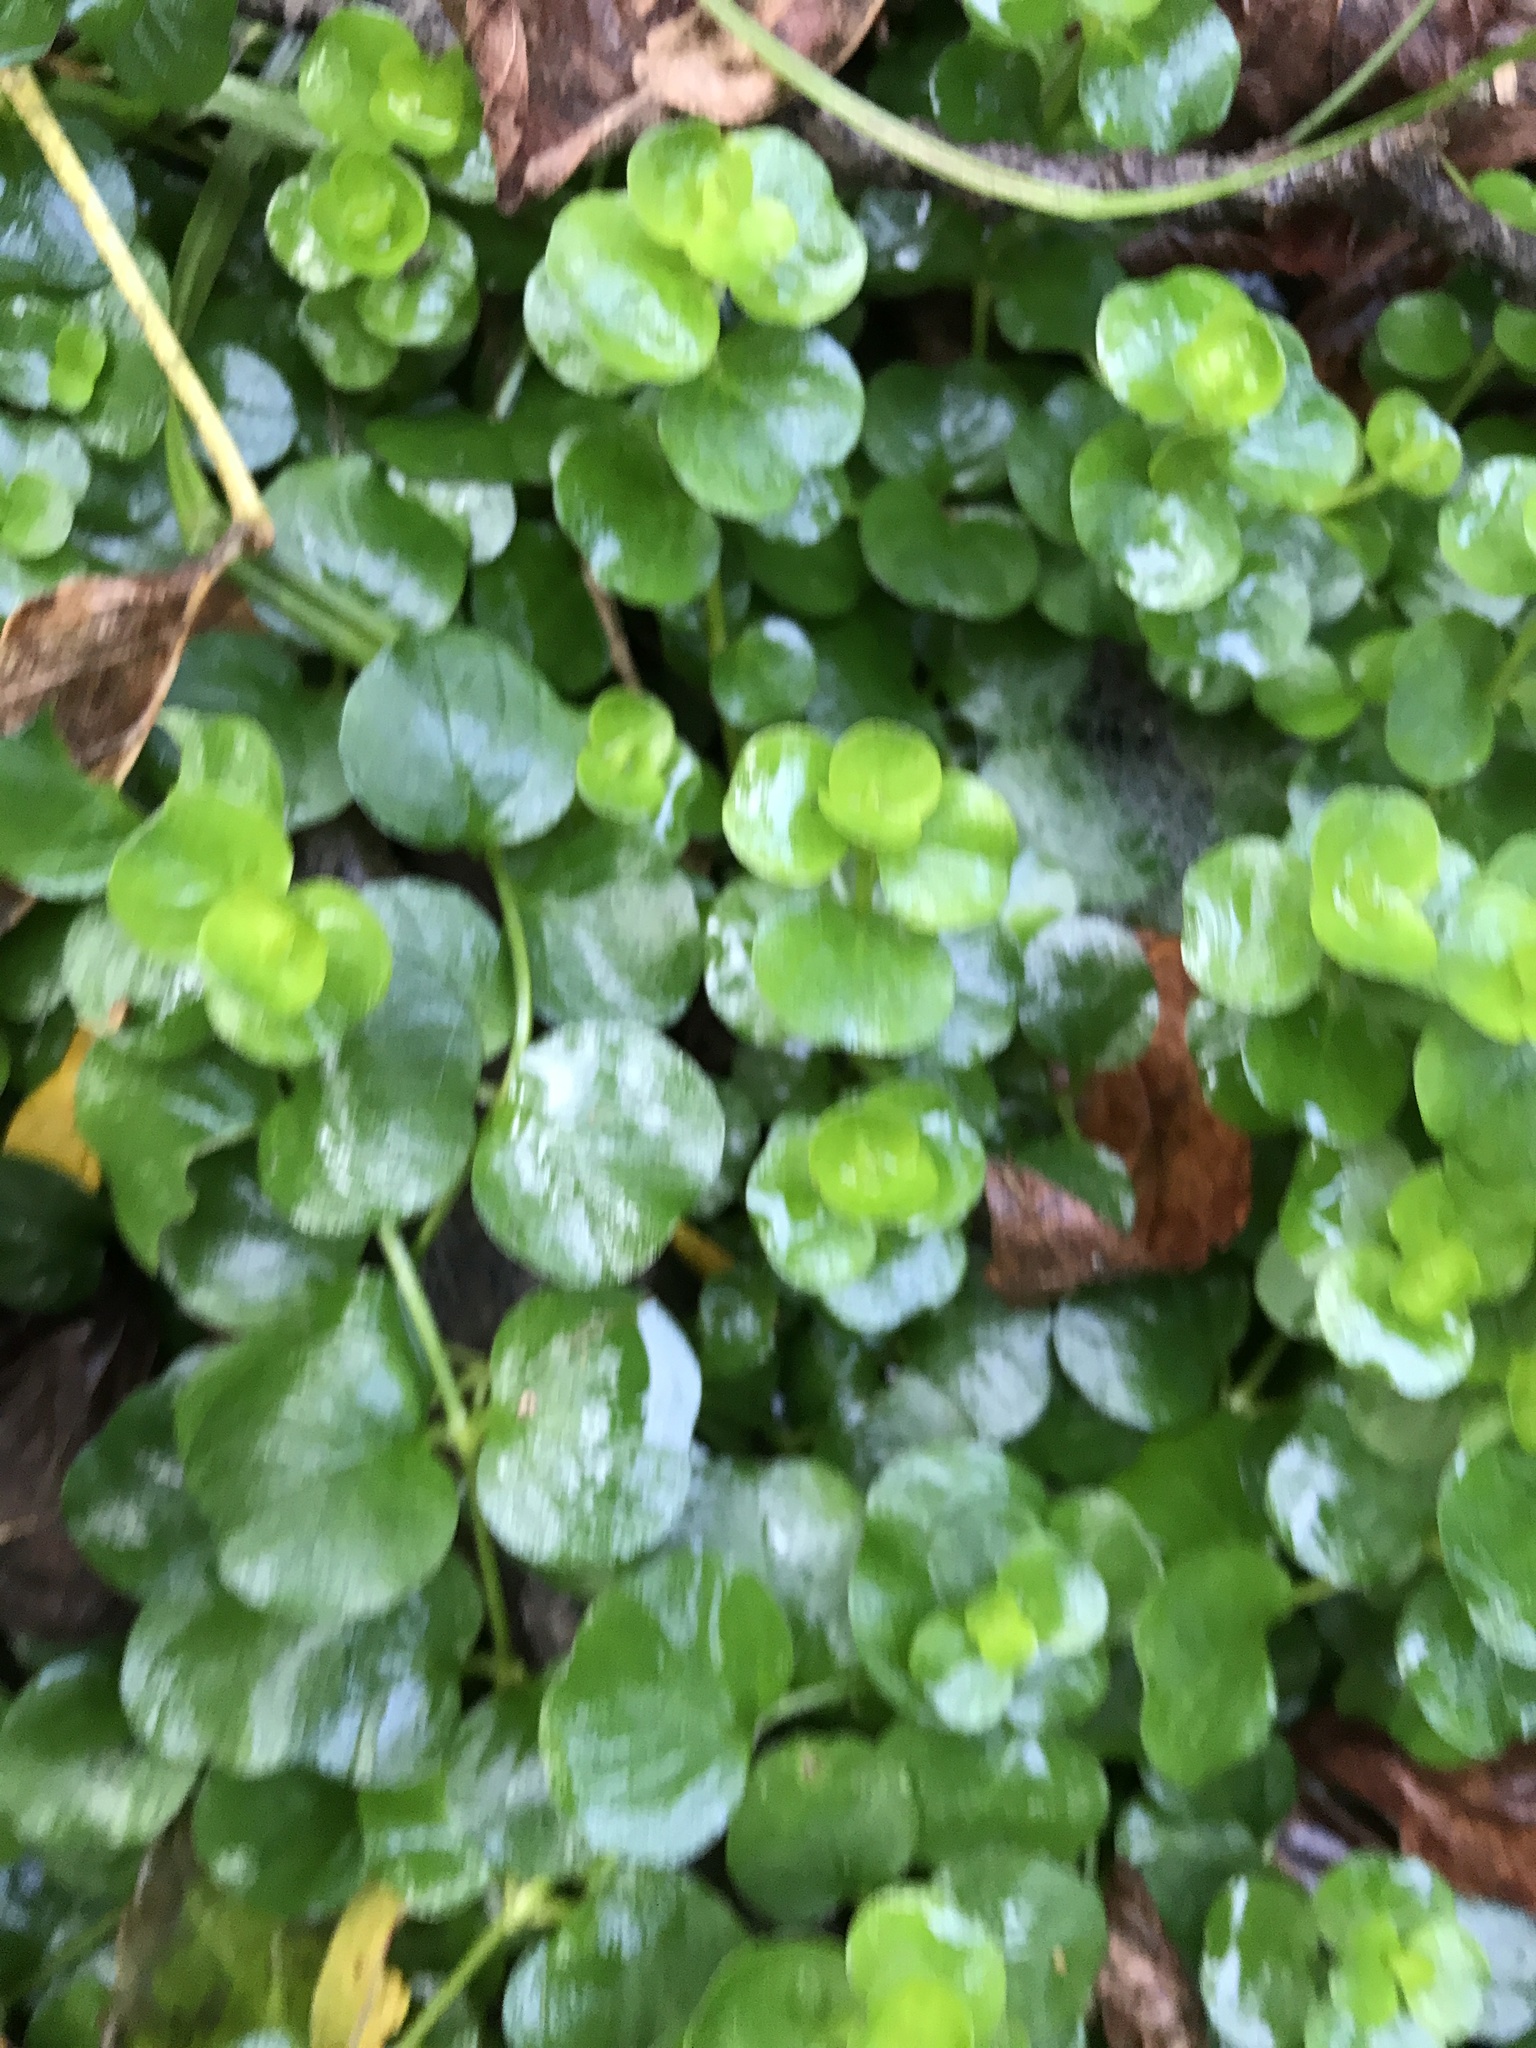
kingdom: Plantae
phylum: Tracheophyta
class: Magnoliopsida
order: Ericales
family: Primulaceae
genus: Lysimachia
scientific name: Lysimachia nummularia
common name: Moneywort
